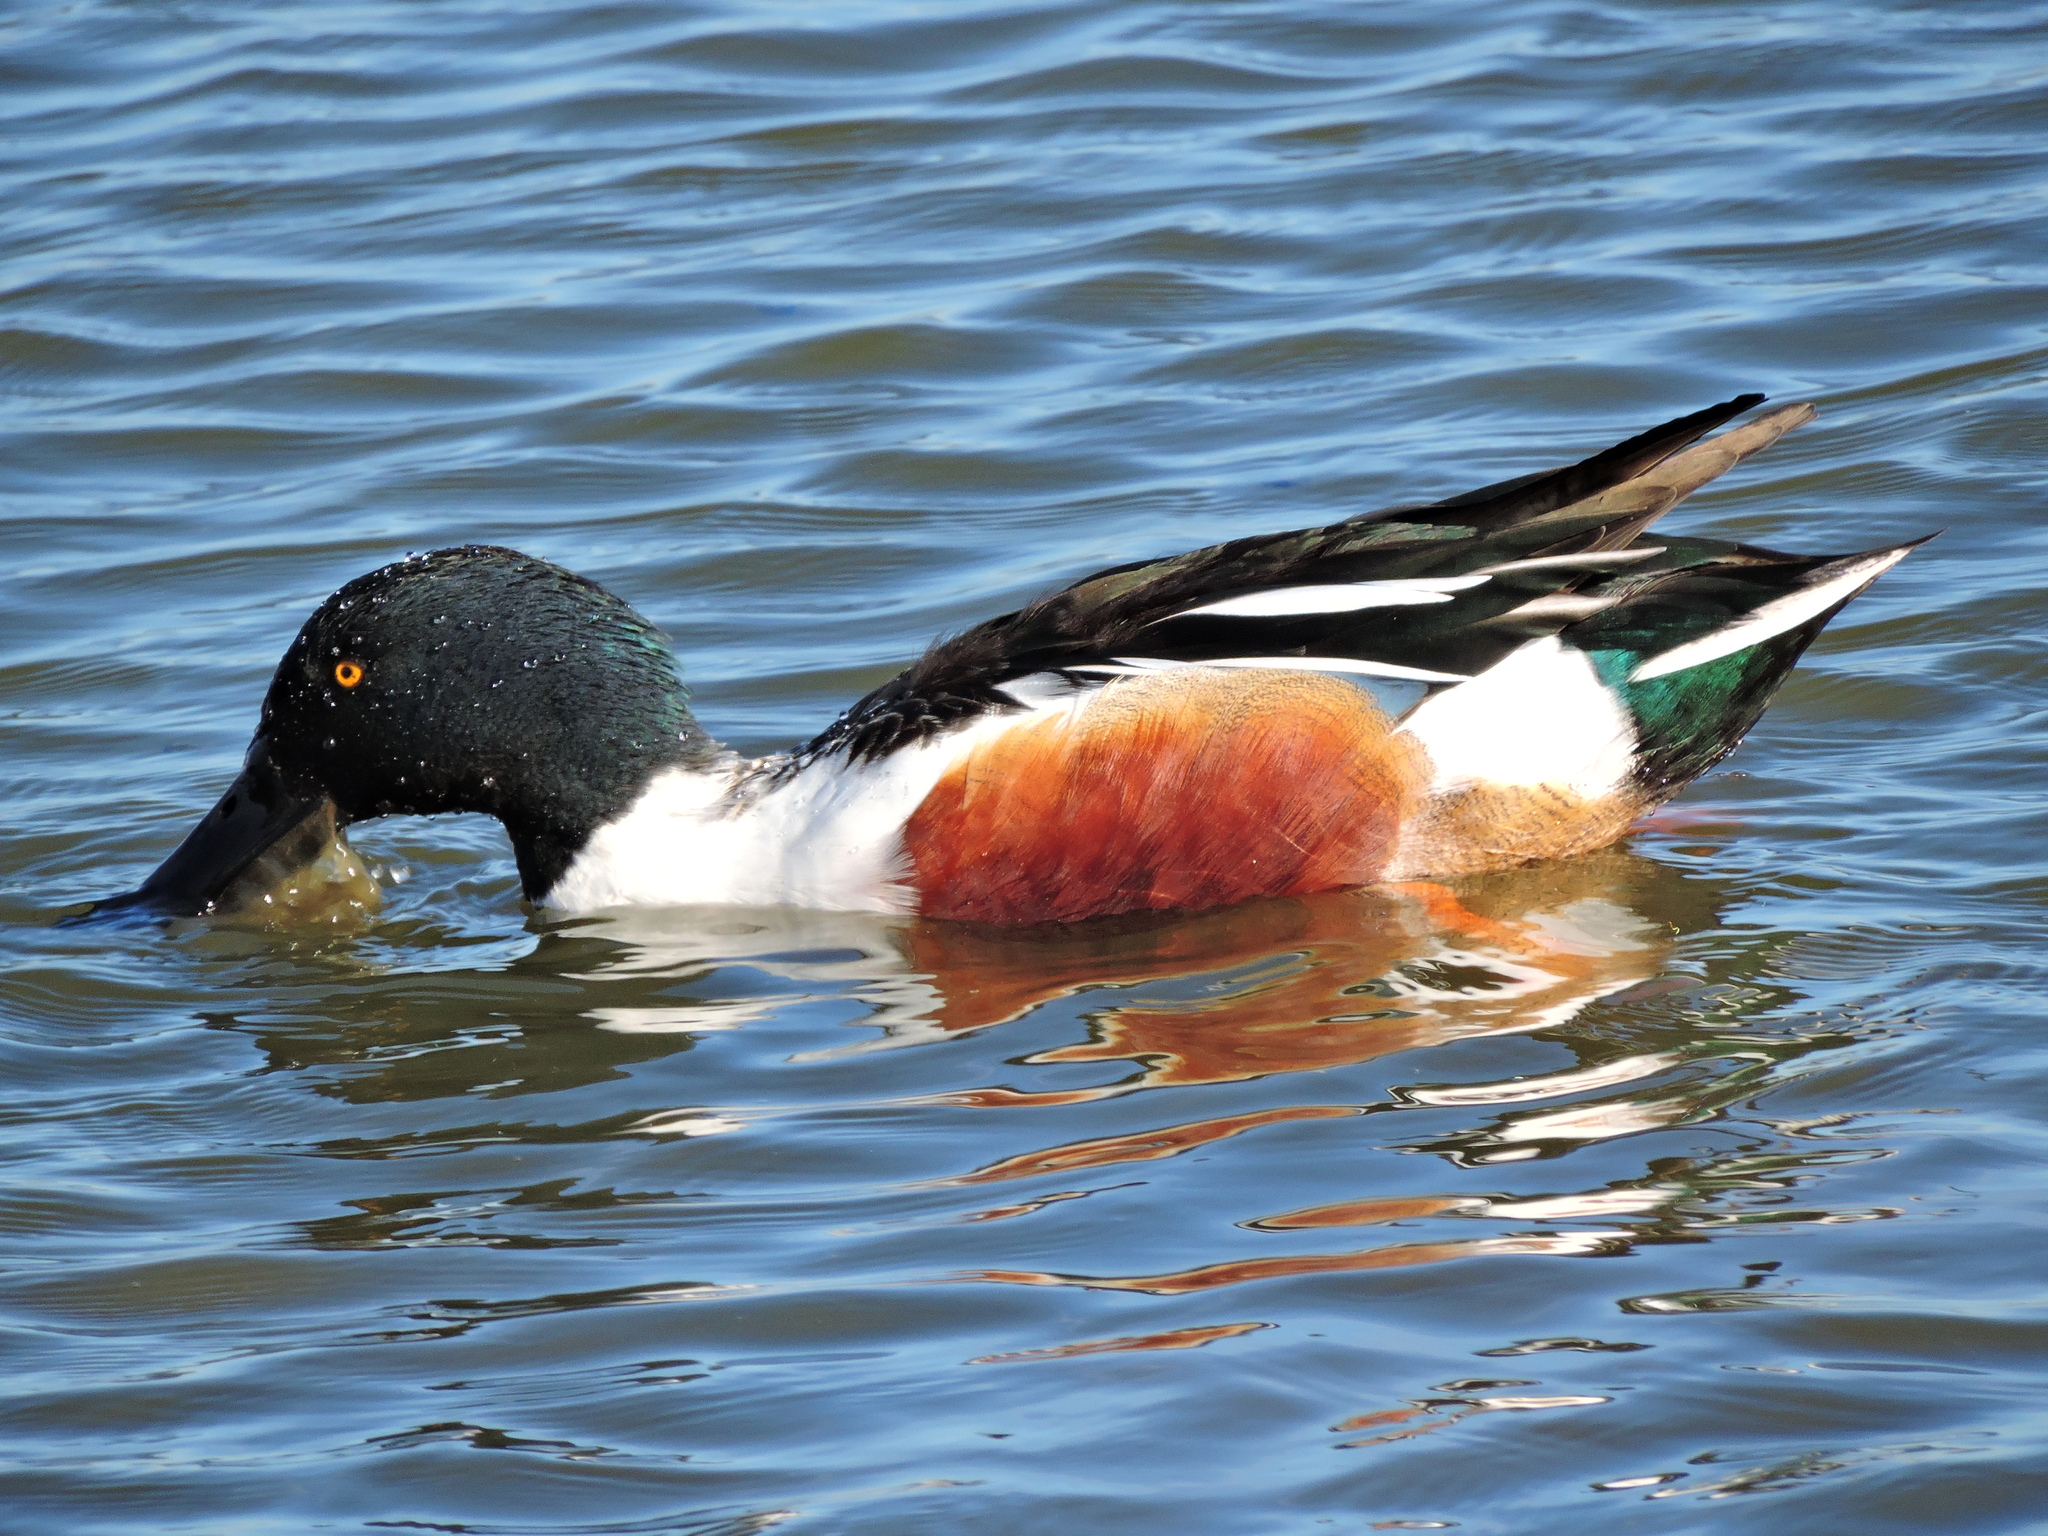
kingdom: Animalia
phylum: Chordata
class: Aves
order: Anseriformes
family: Anatidae
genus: Spatula
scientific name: Spatula clypeata
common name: Northern shoveler
